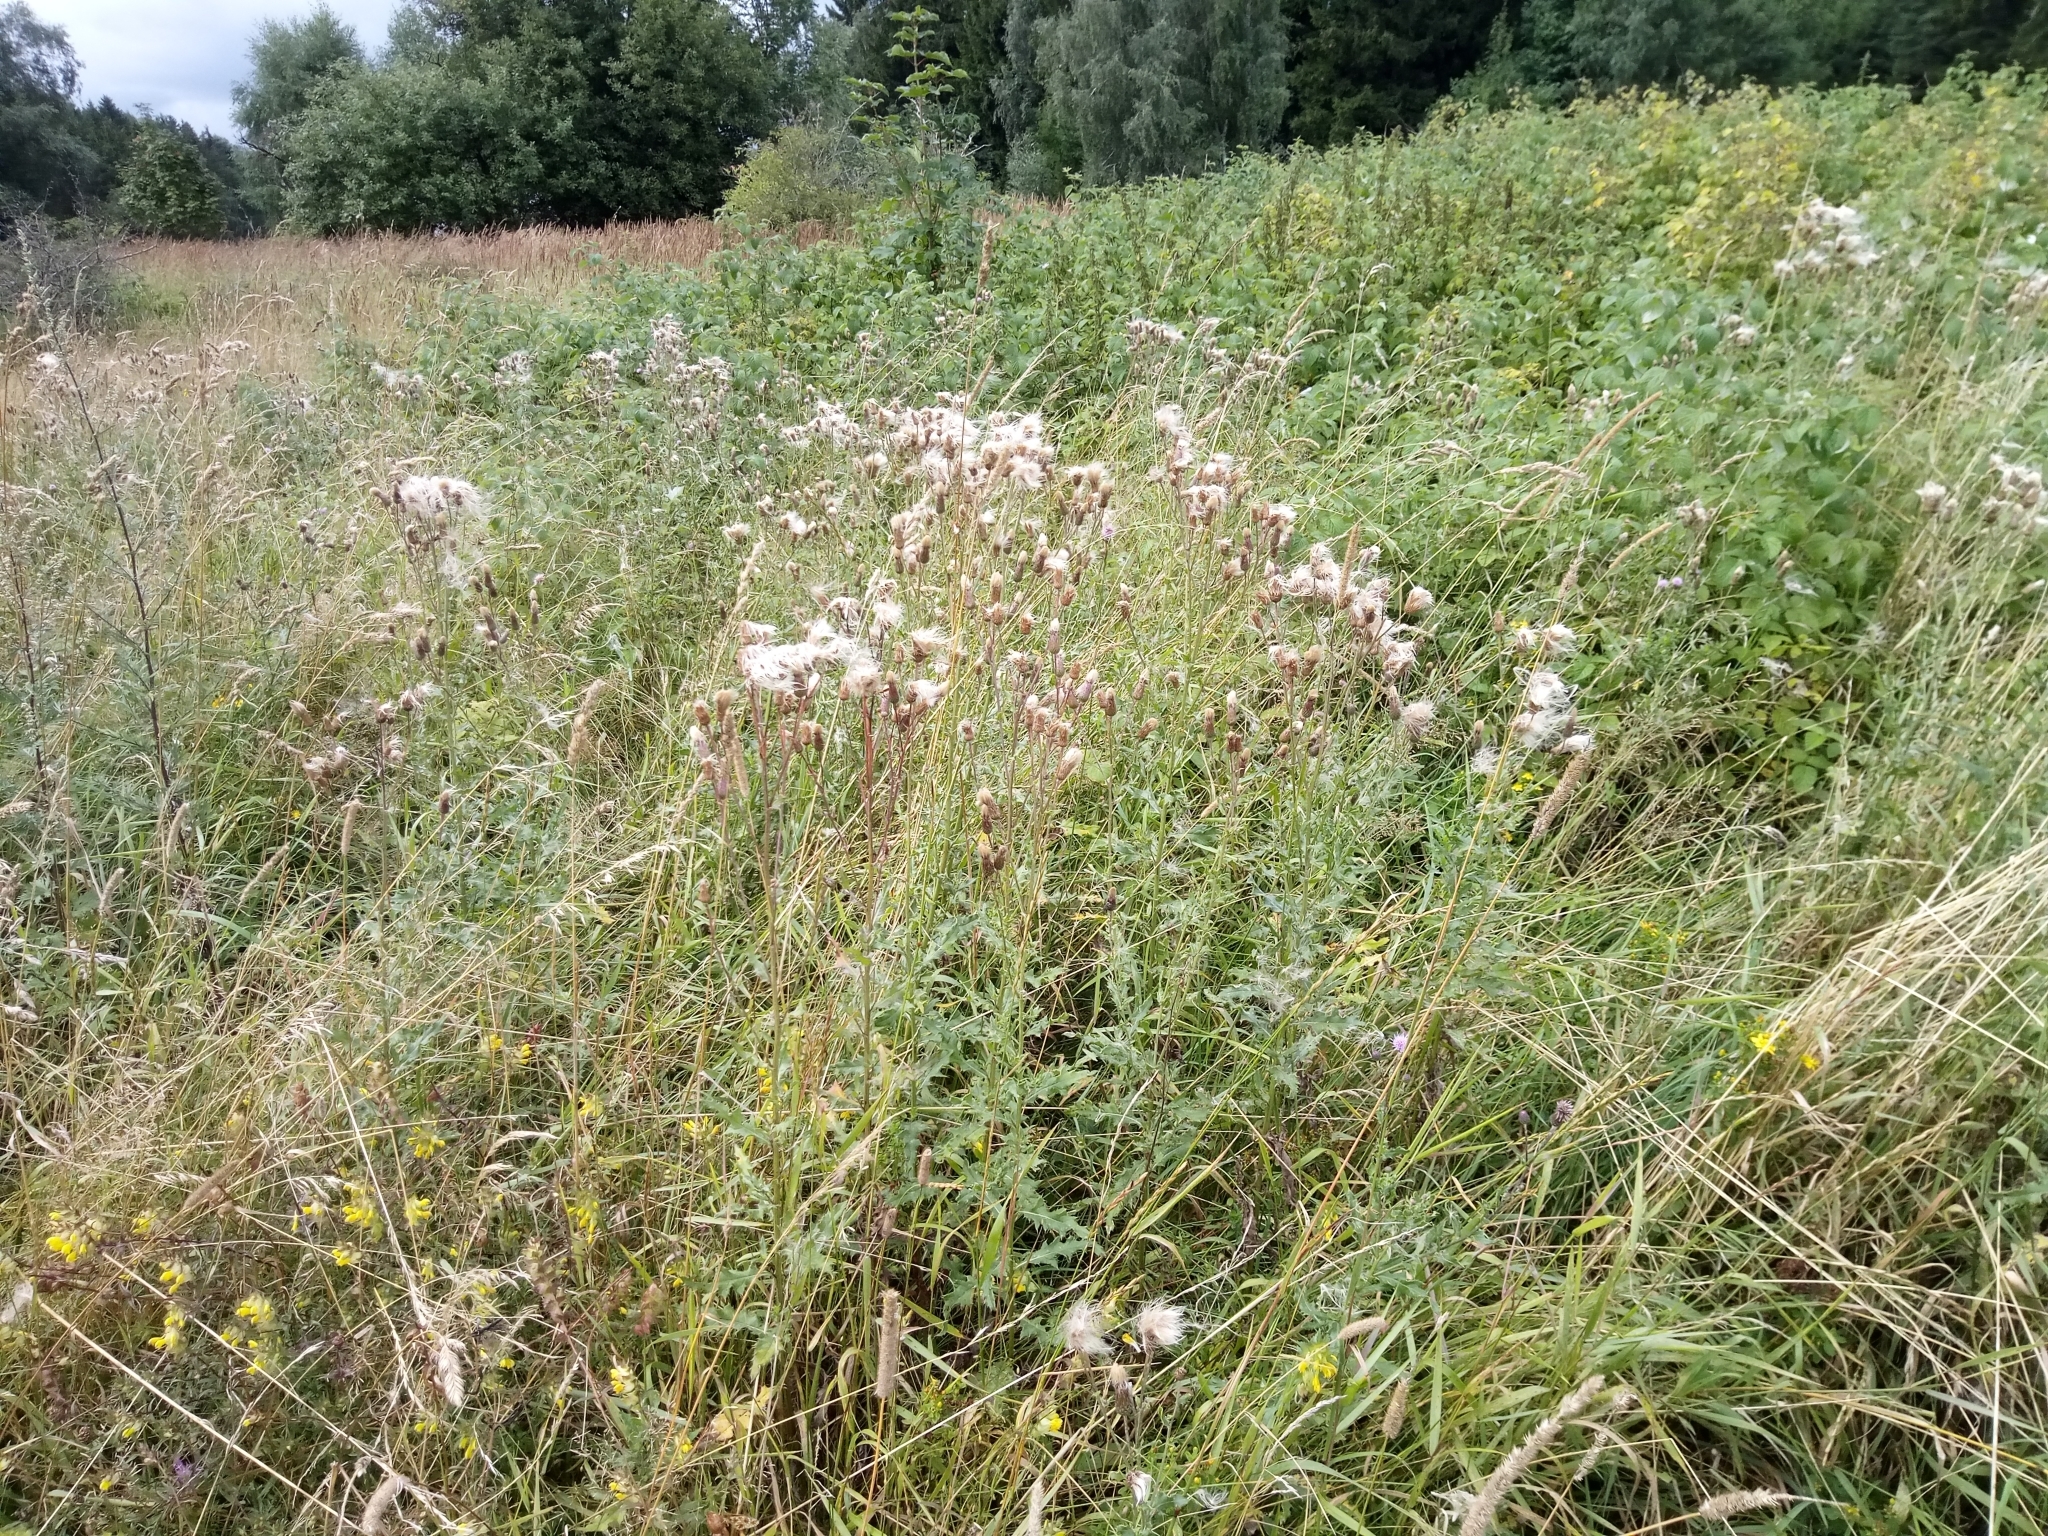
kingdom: Plantae
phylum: Tracheophyta
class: Magnoliopsida
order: Asterales
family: Asteraceae
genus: Cirsium
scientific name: Cirsium arvense
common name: Creeping thistle
